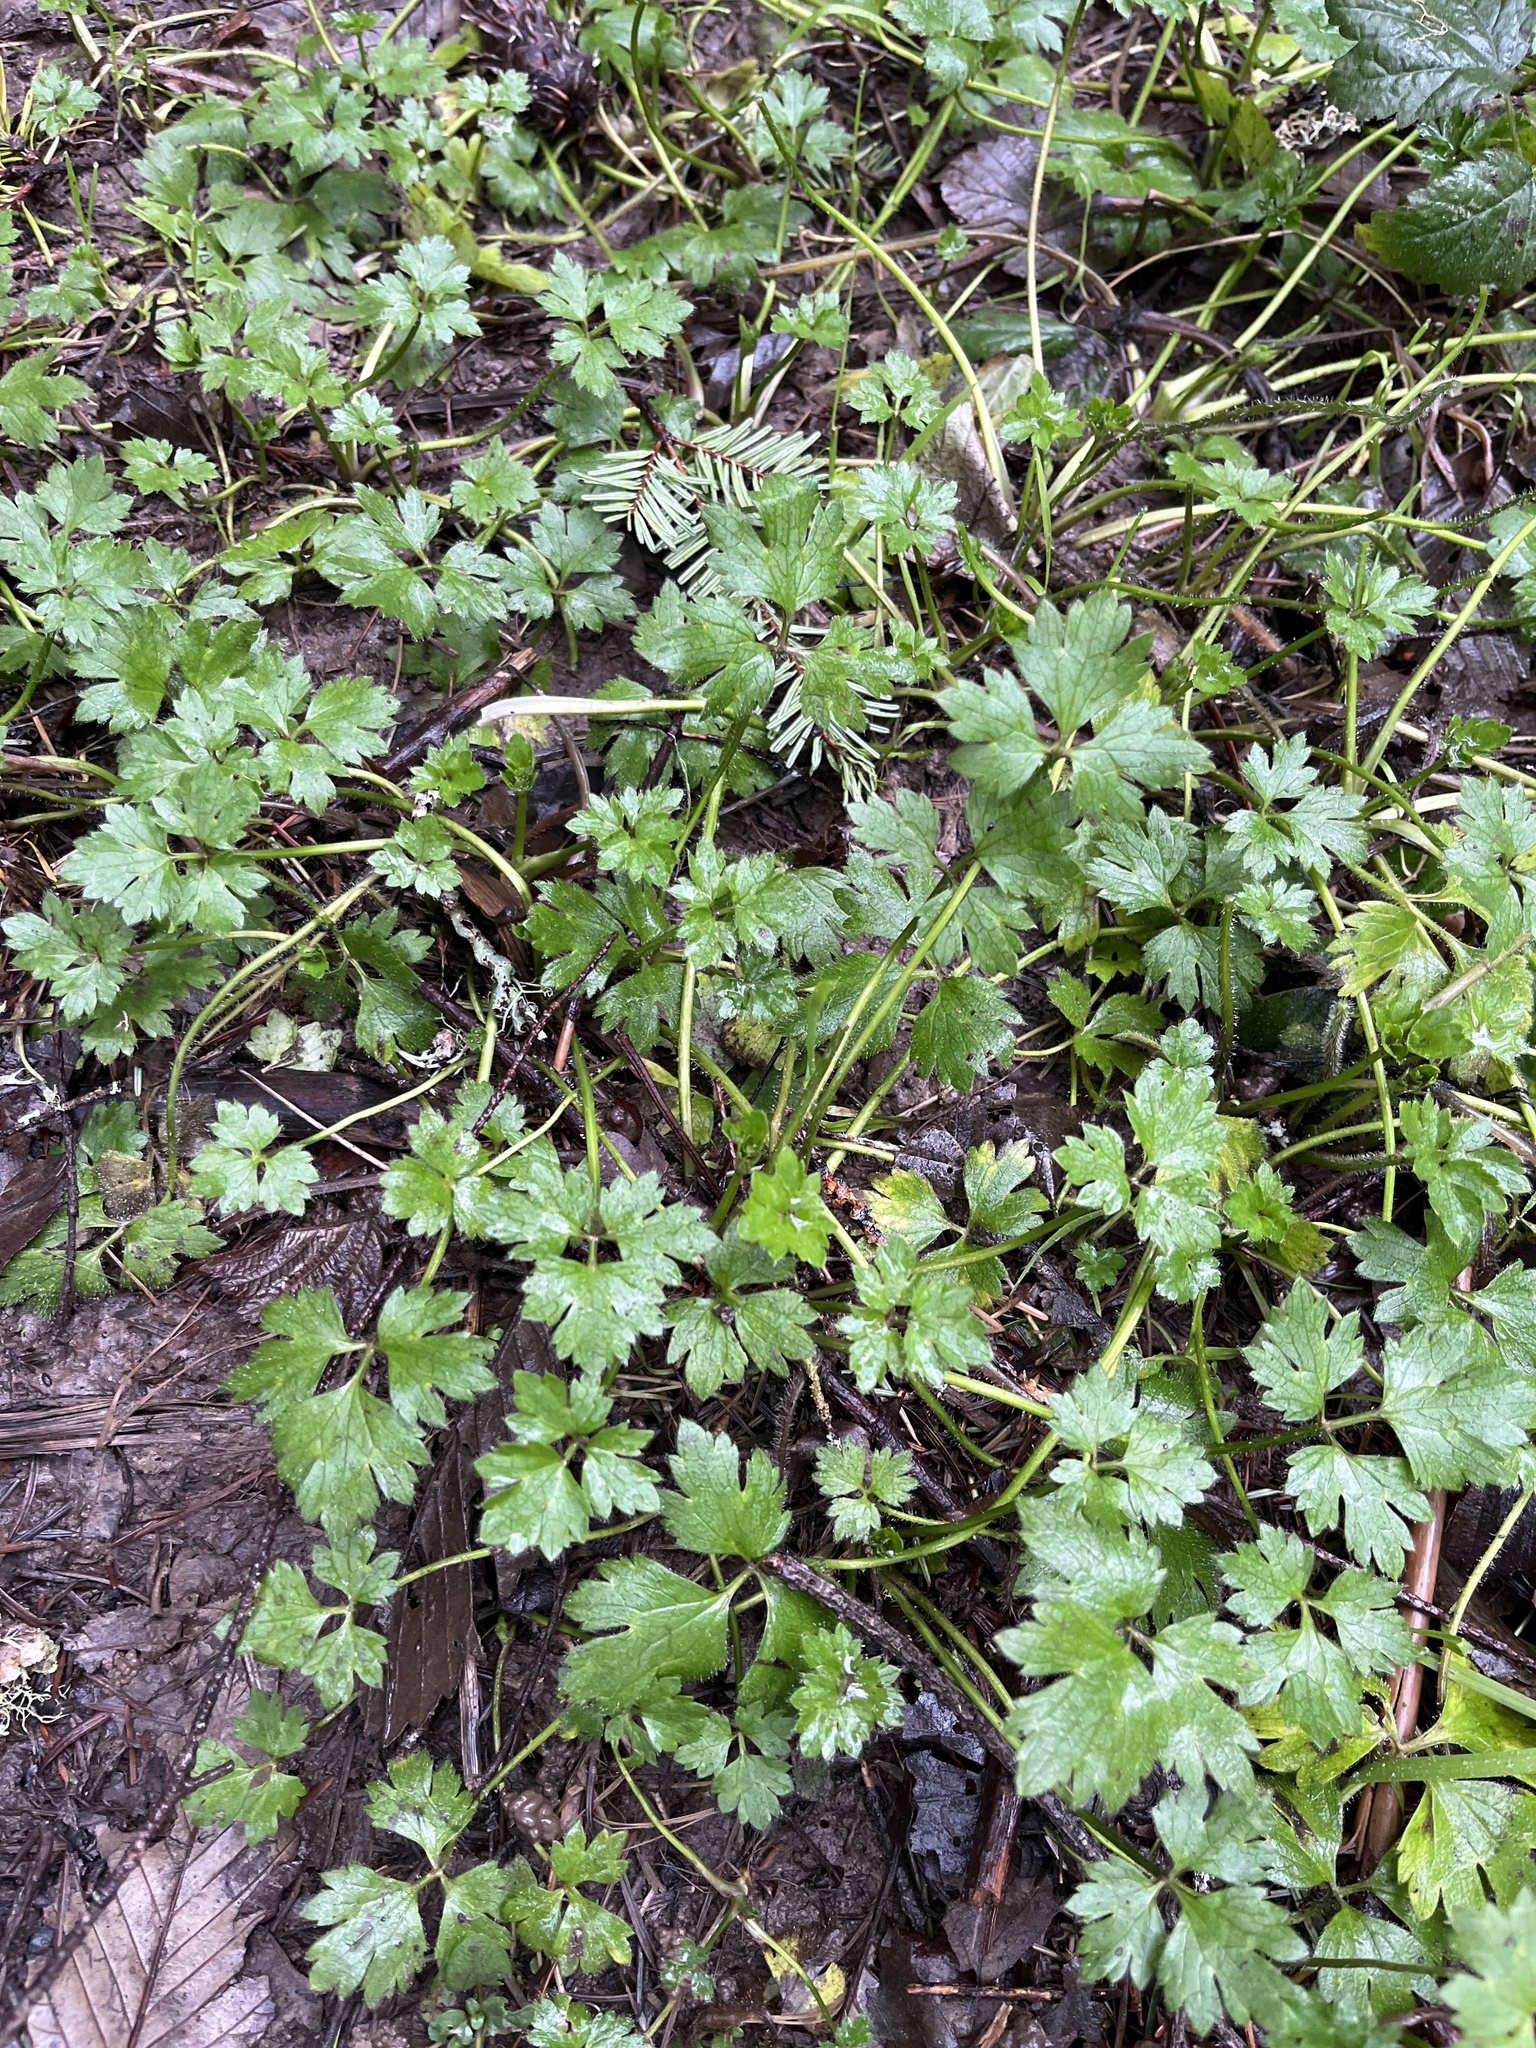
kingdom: Plantae
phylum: Tracheophyta
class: Magnoliopsida
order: Ranunculales
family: Ranunculaceae
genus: Ranunculus
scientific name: Ranunculus repens
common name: Creeping buttercup
